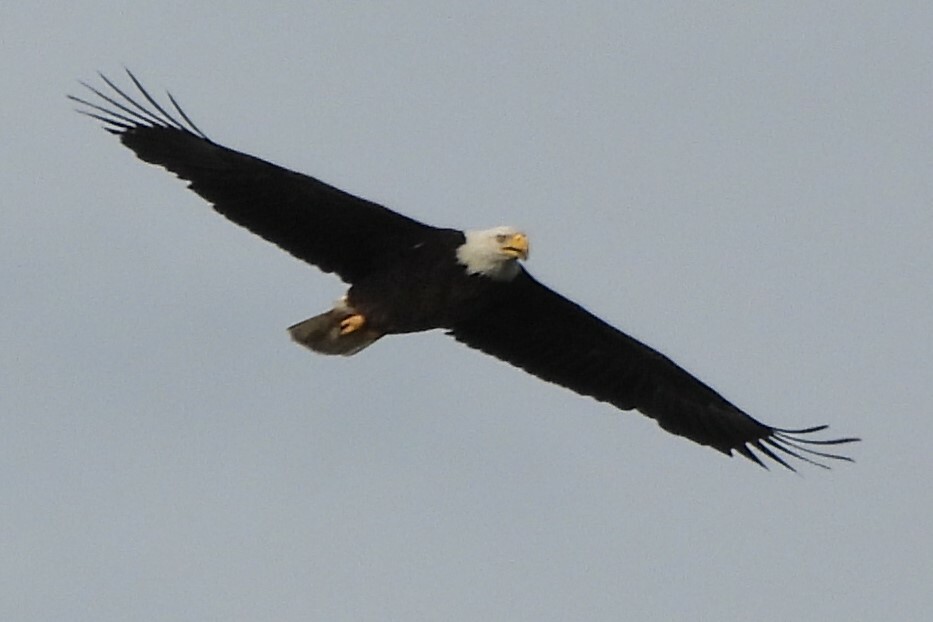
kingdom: Animalia
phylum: Chordata
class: Aves
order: Accipitriformes
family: Accipitridae
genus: Haliaeetus
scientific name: Haliaeetus leucocephalus
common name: Bald eagle
